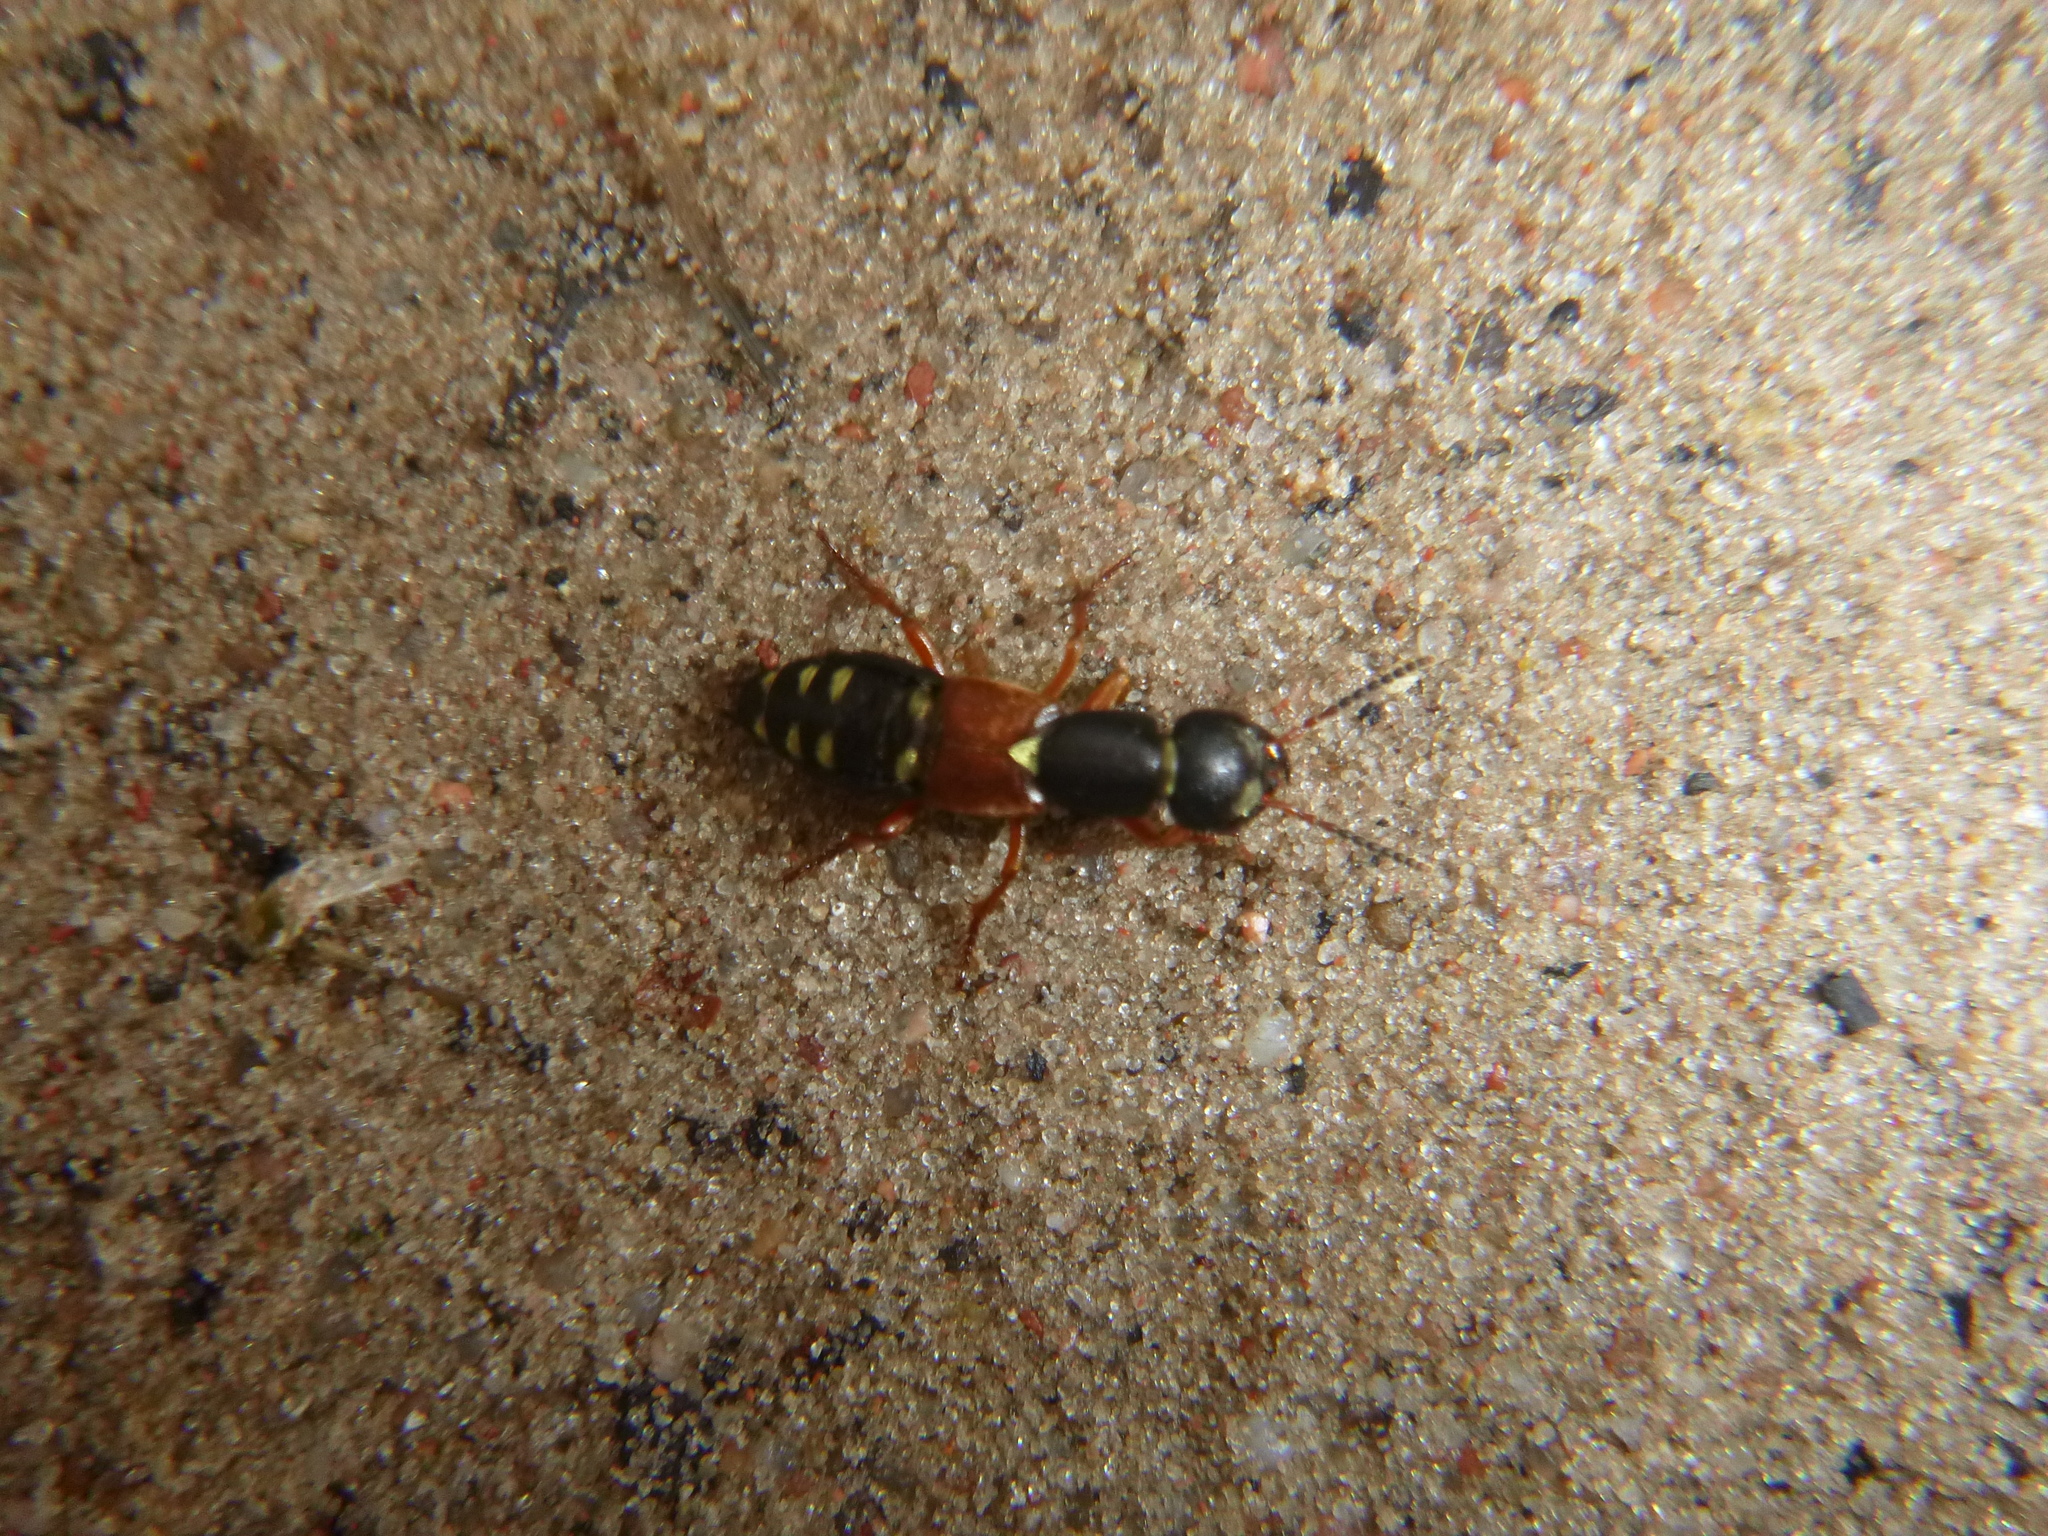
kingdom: Animalia
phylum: Arthropoda
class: Insecta
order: Coleoptera
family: Staphylinidae
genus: Staphylinus
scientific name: Staphylinus erythropterus
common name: Staph beetle
